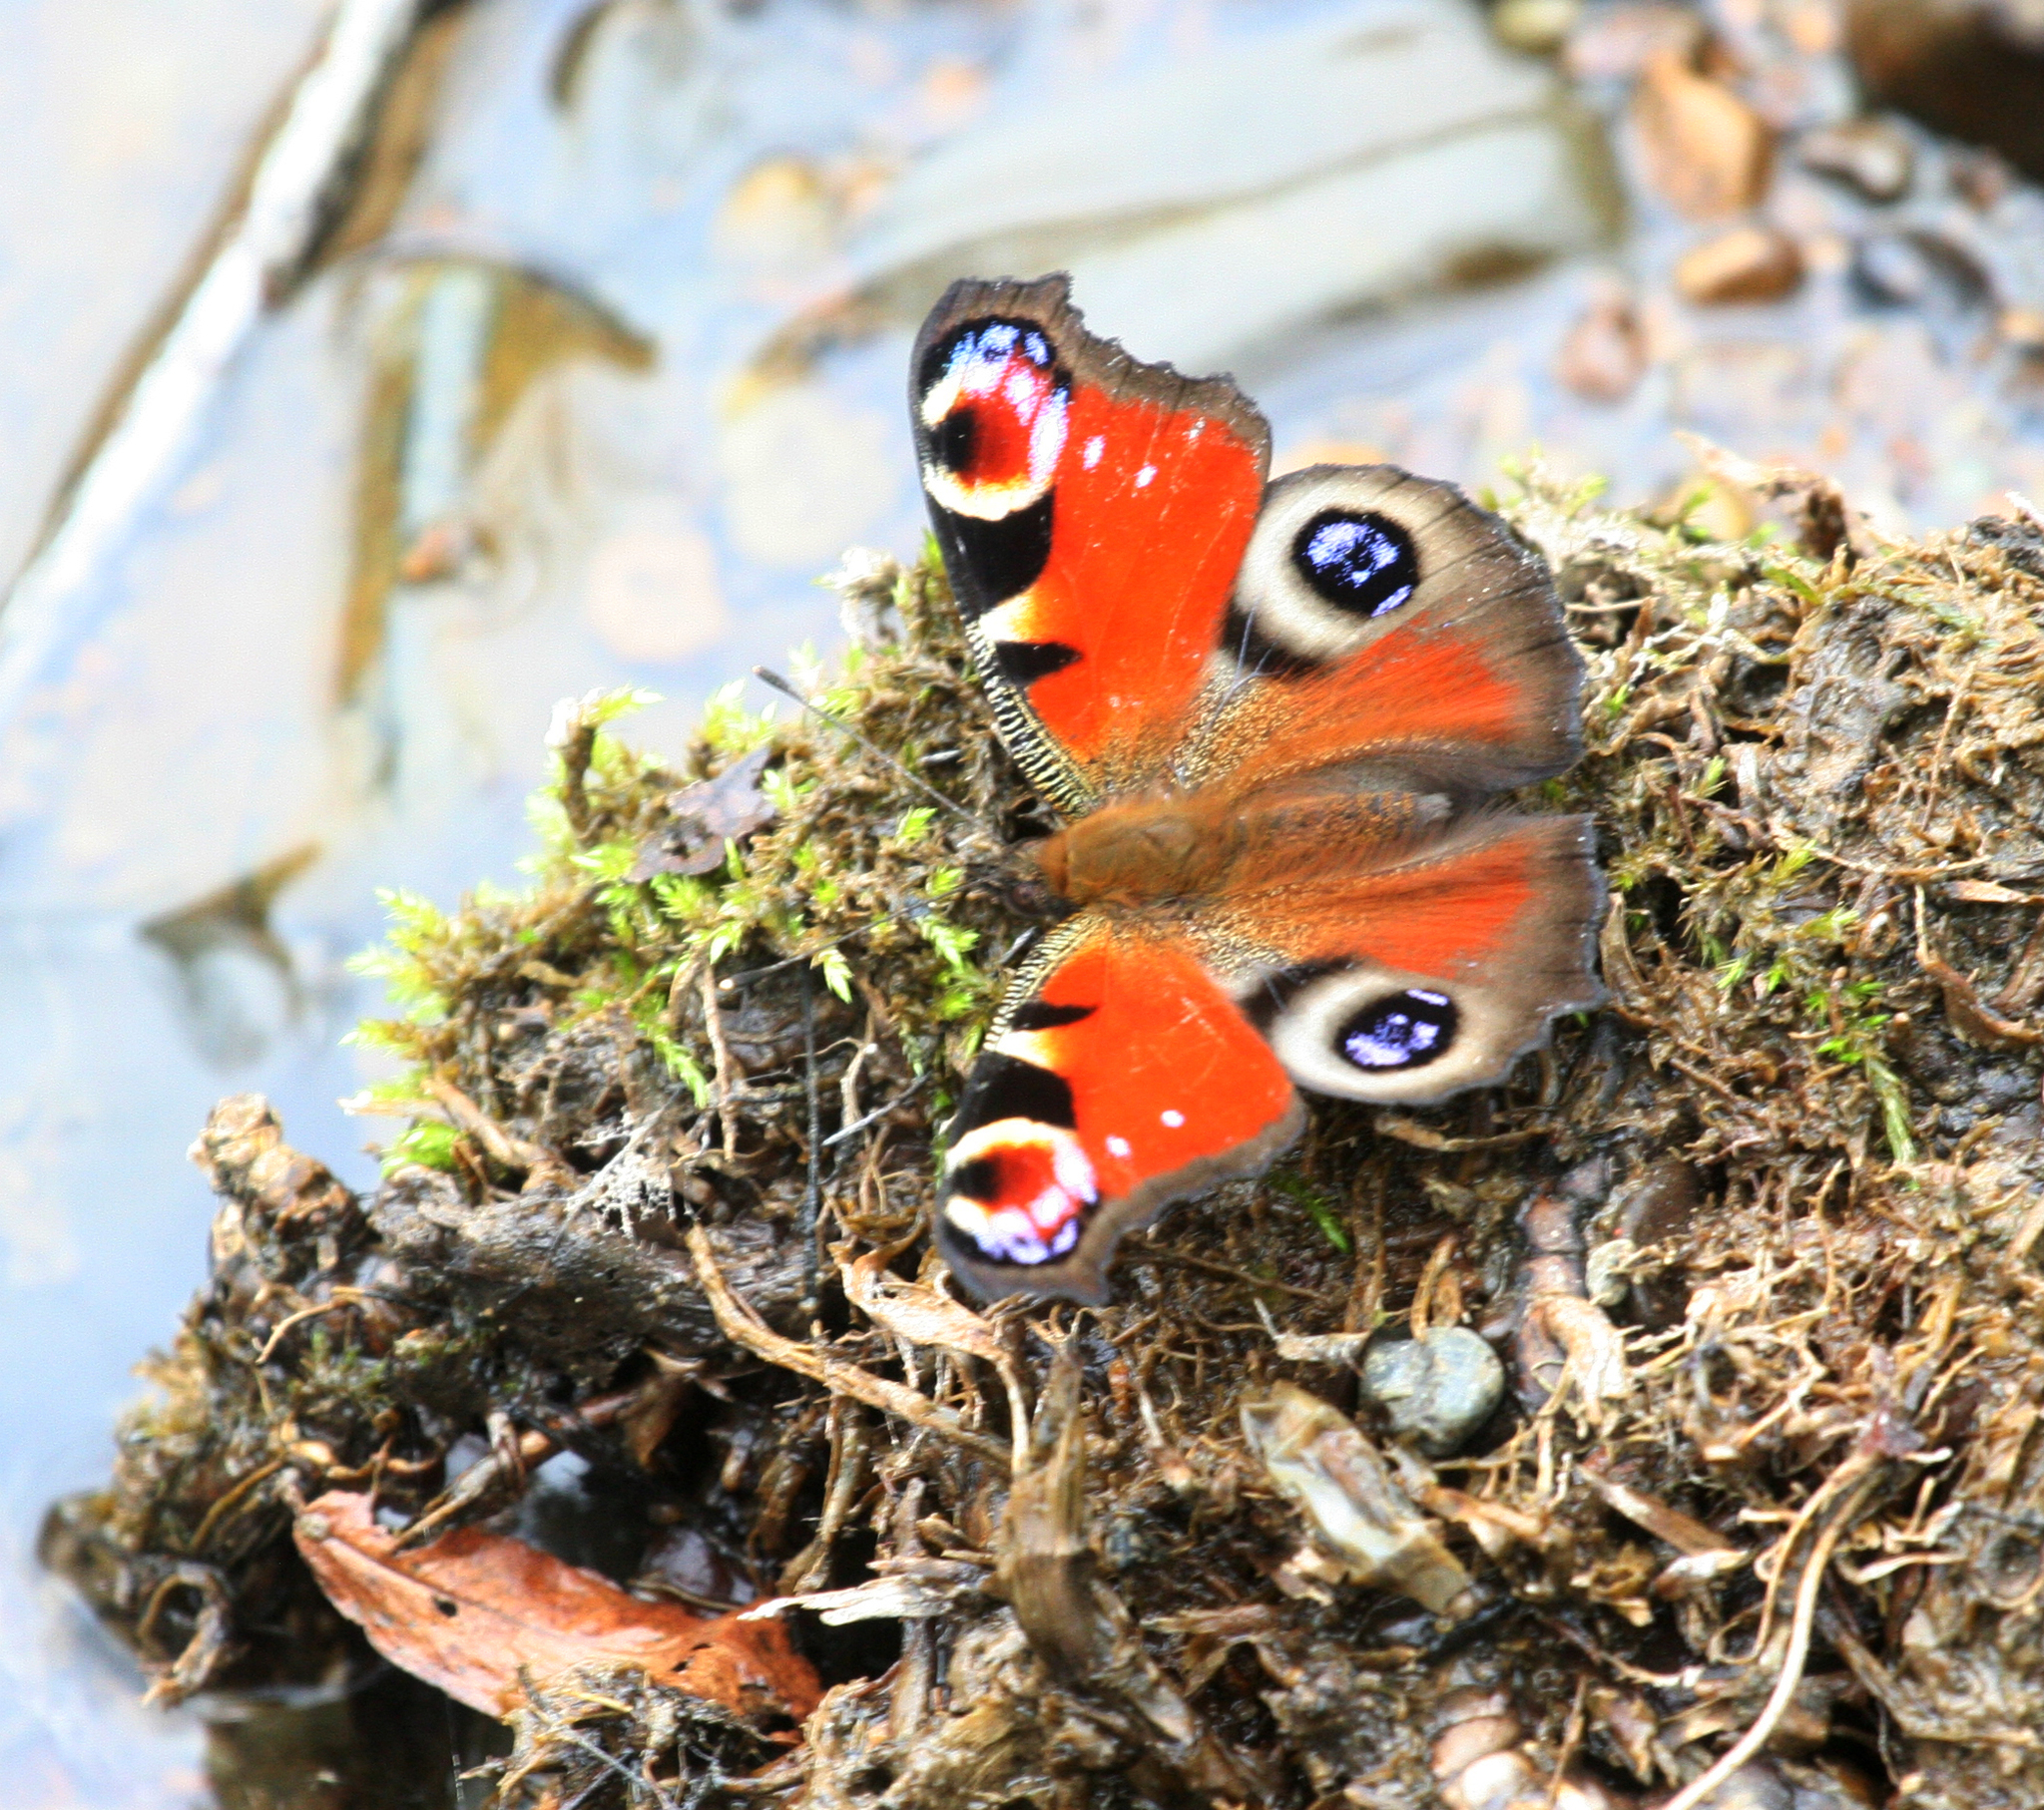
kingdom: Animalia
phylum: Arthropoda
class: Insecta
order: Lepidoptera
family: Nymphalidae
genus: Aglais
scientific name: Aglais io
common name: Peacock
